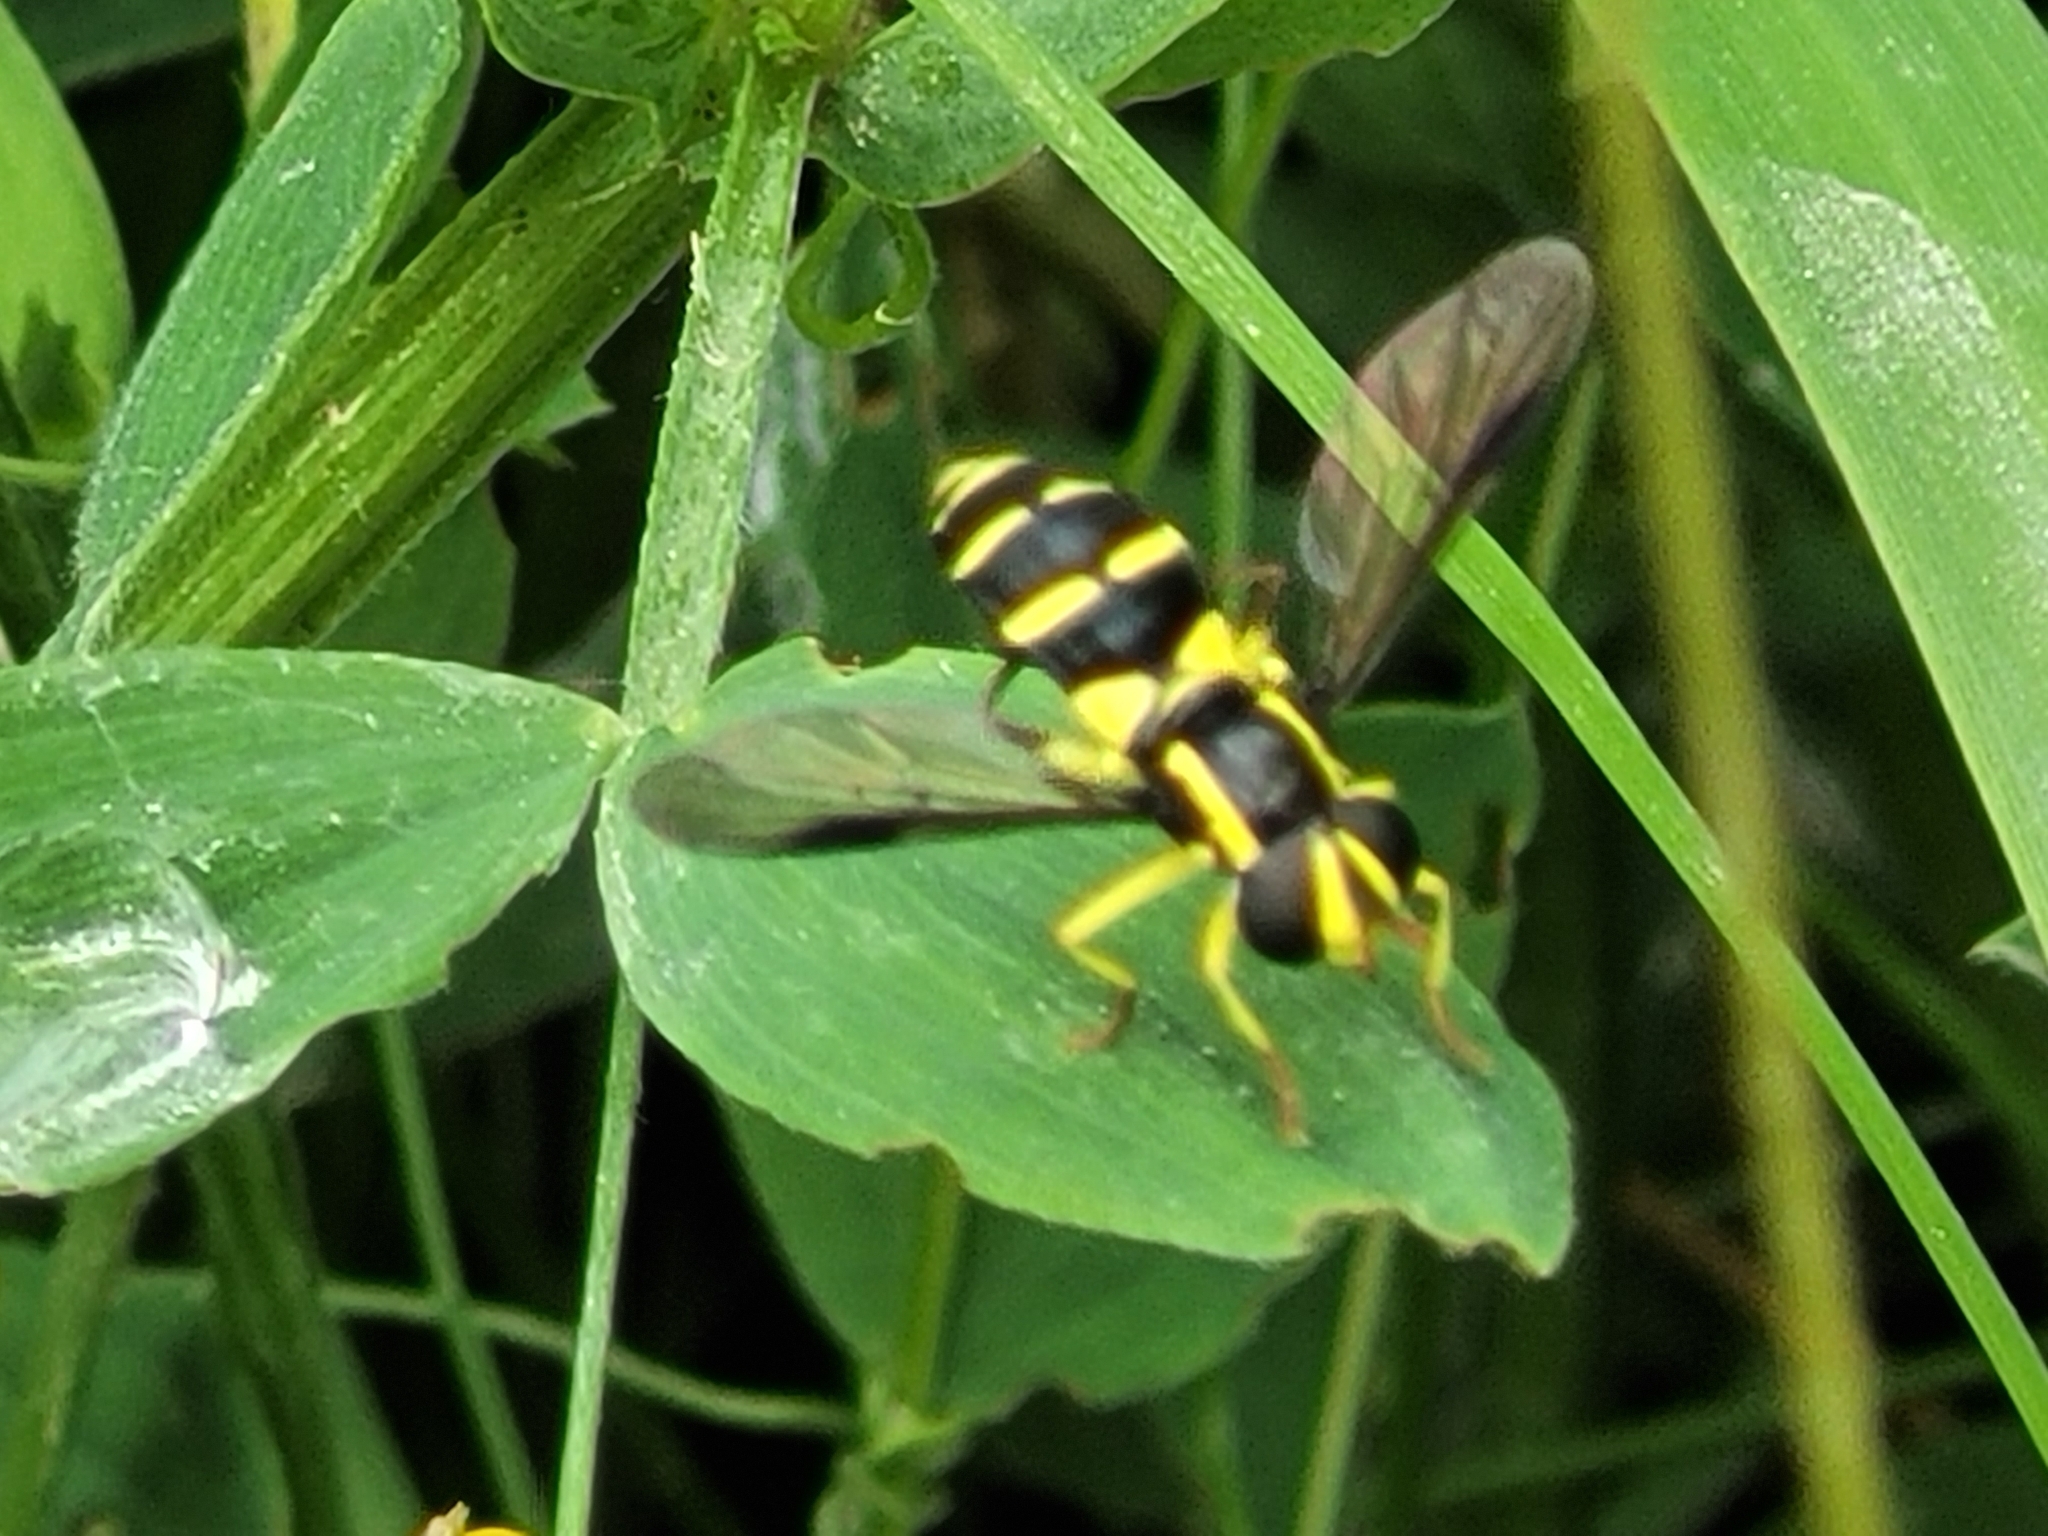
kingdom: Animalia
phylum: Arthropoda
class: Insecta
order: Diptera
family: Syrphidae
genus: Philhelius
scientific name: Philhelius pedissequum
